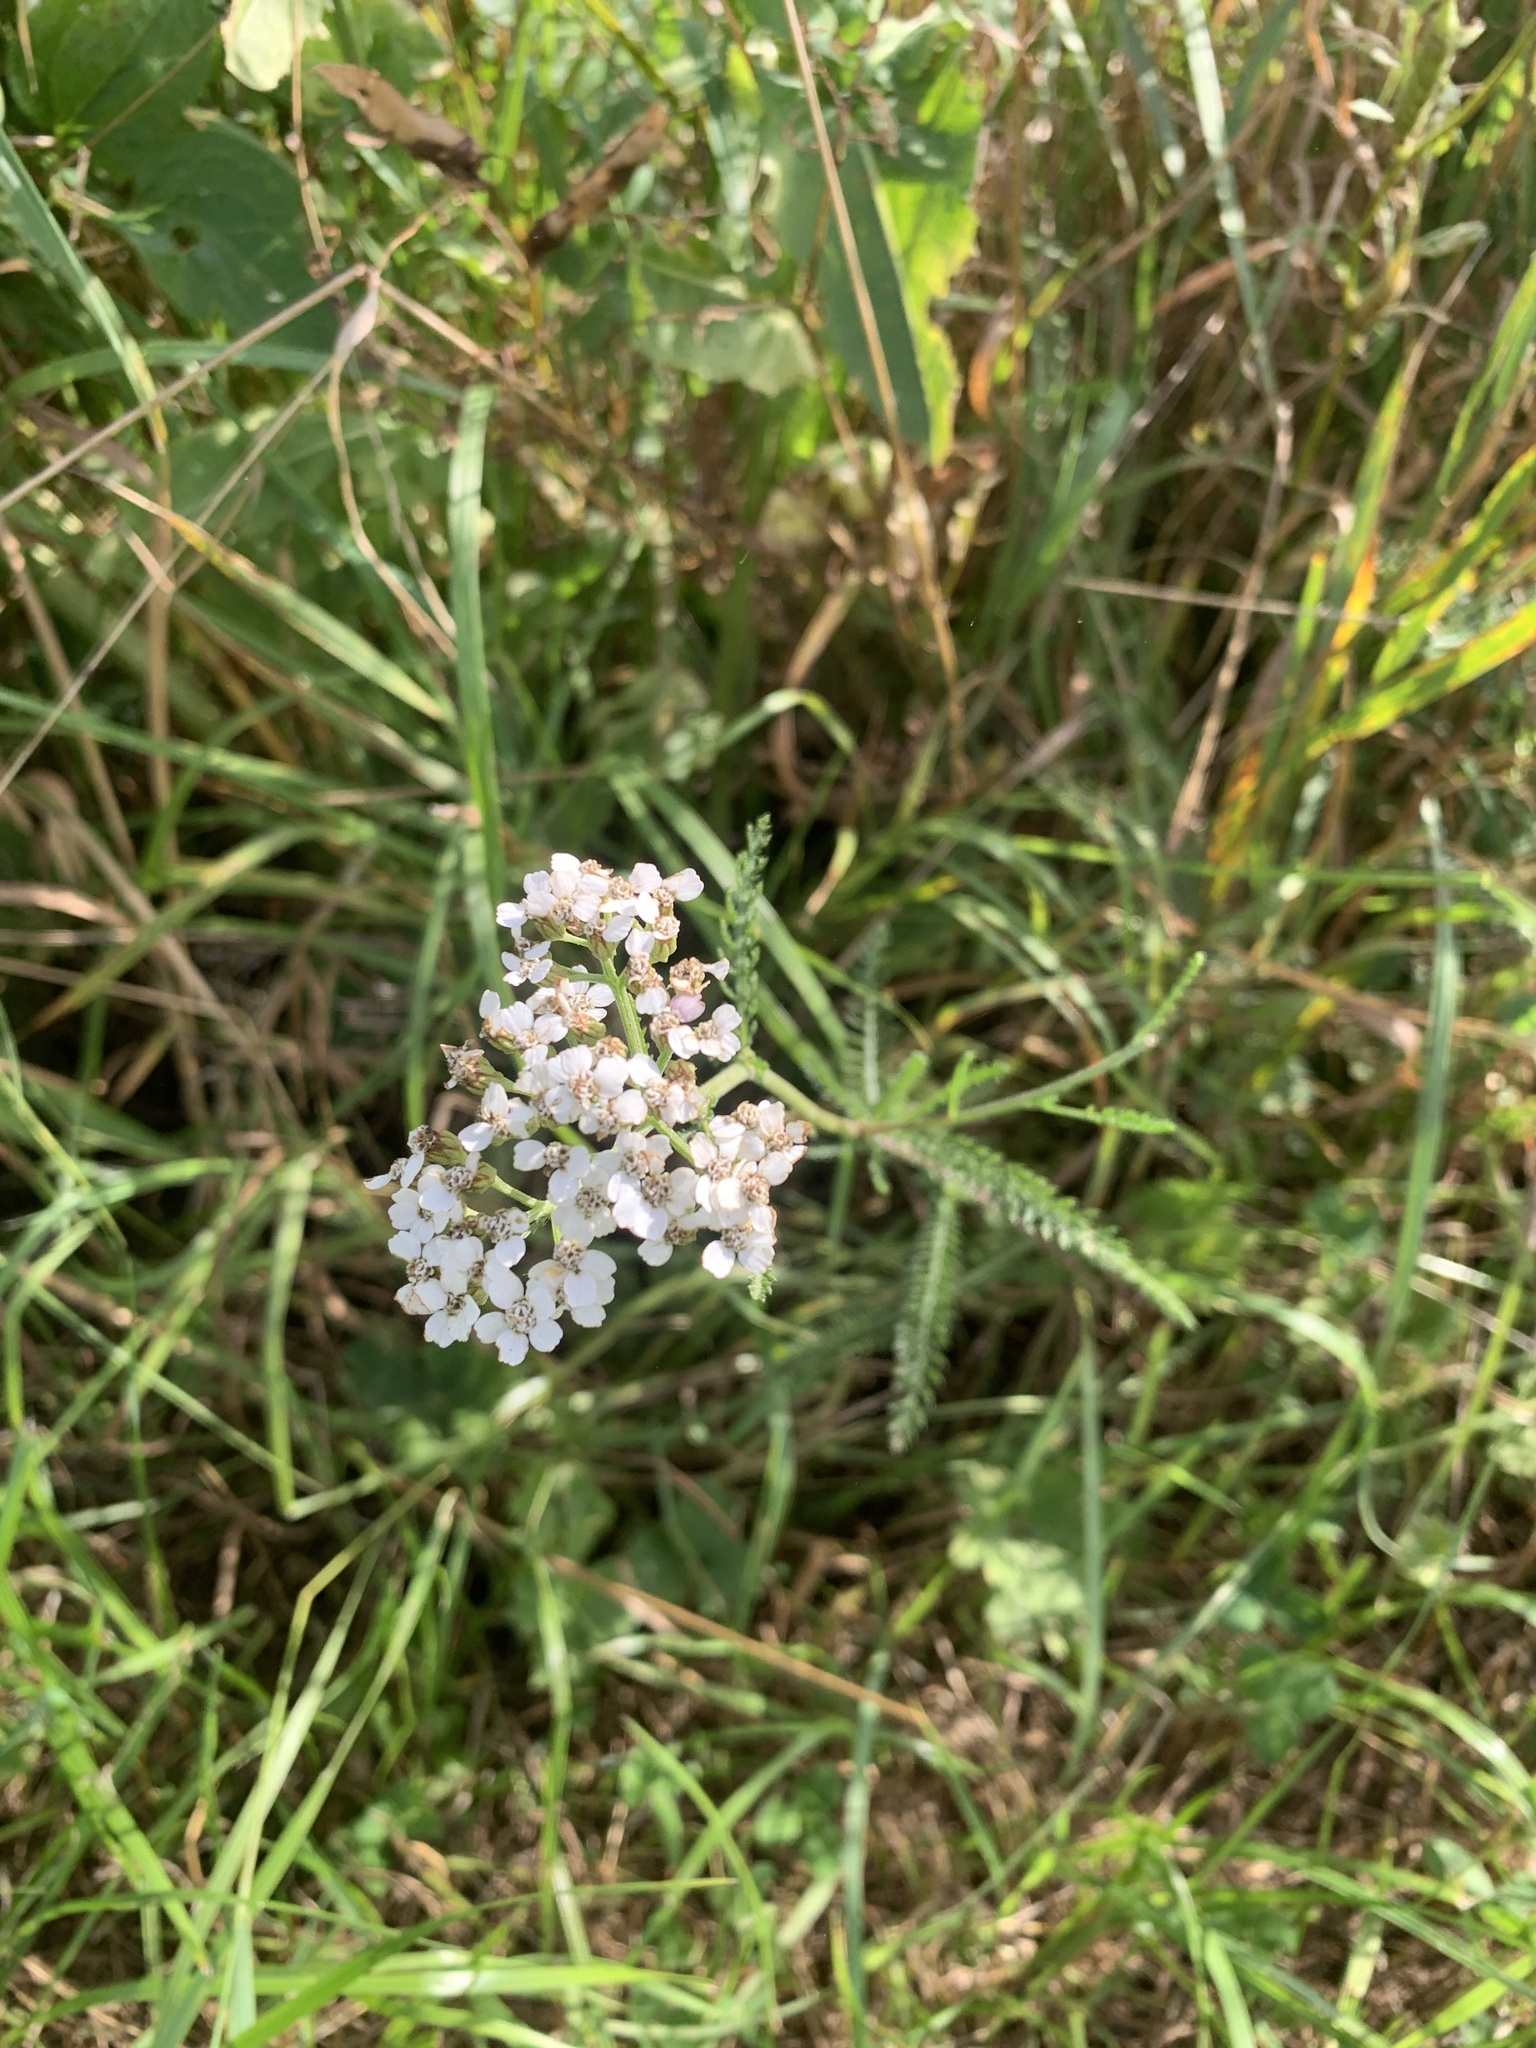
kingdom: Plantae
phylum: Tracheophyta
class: Magnoliopsida
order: Asterales
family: Asteraceae
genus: Achillea
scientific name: Achillea millefolium
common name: Yarrow
